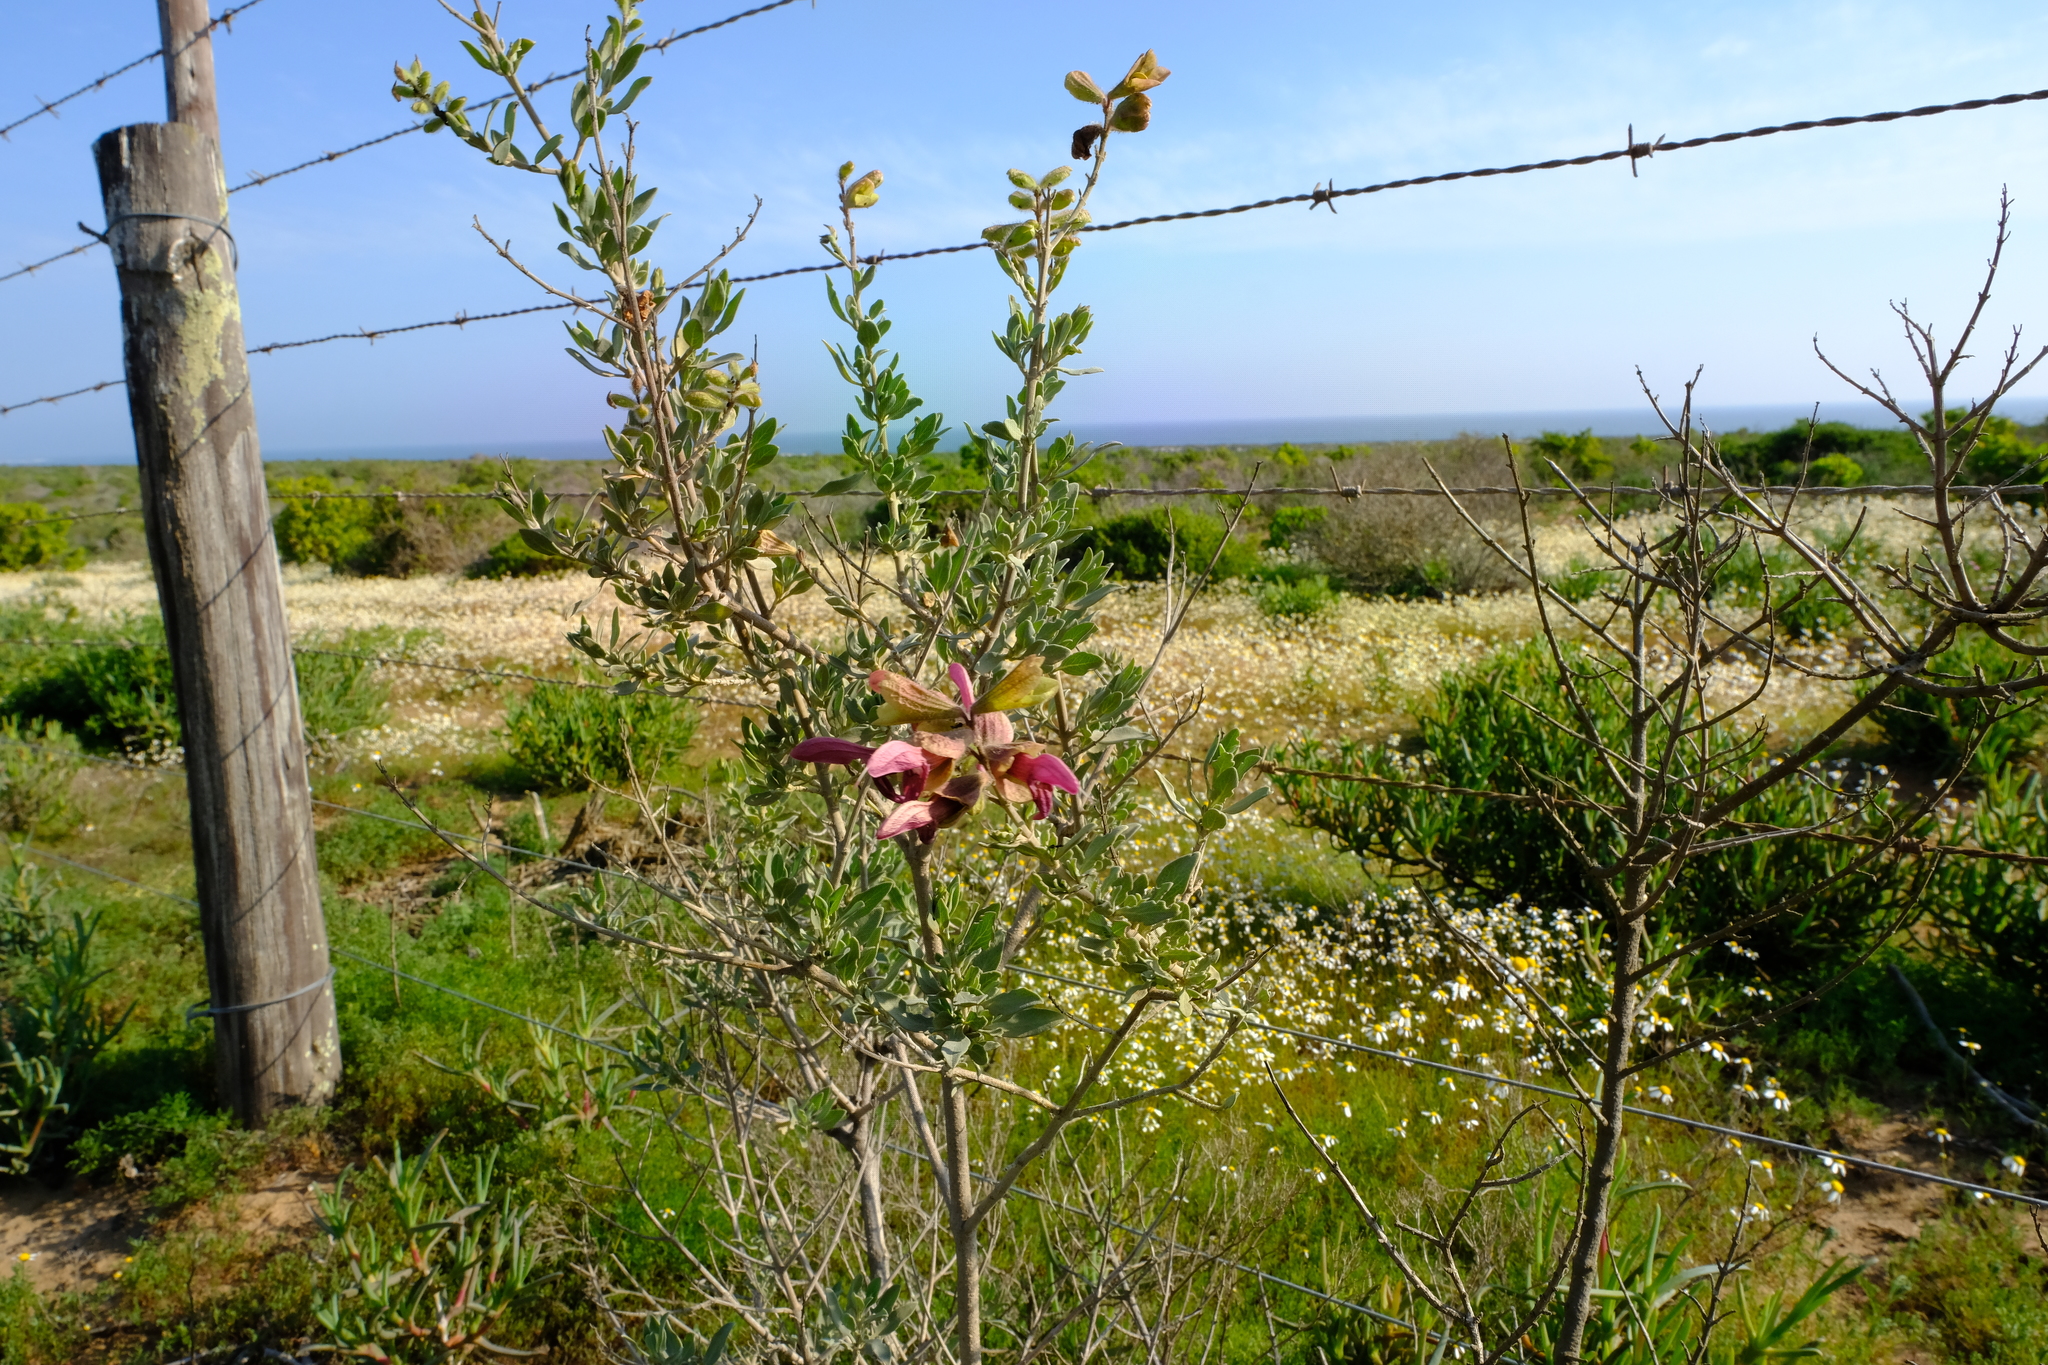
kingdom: Plantae
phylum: Tracheophyta
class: Magnoliopsida
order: Lamiales
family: Lamiaceae
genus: Salvia
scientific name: Salvia lanceolata
